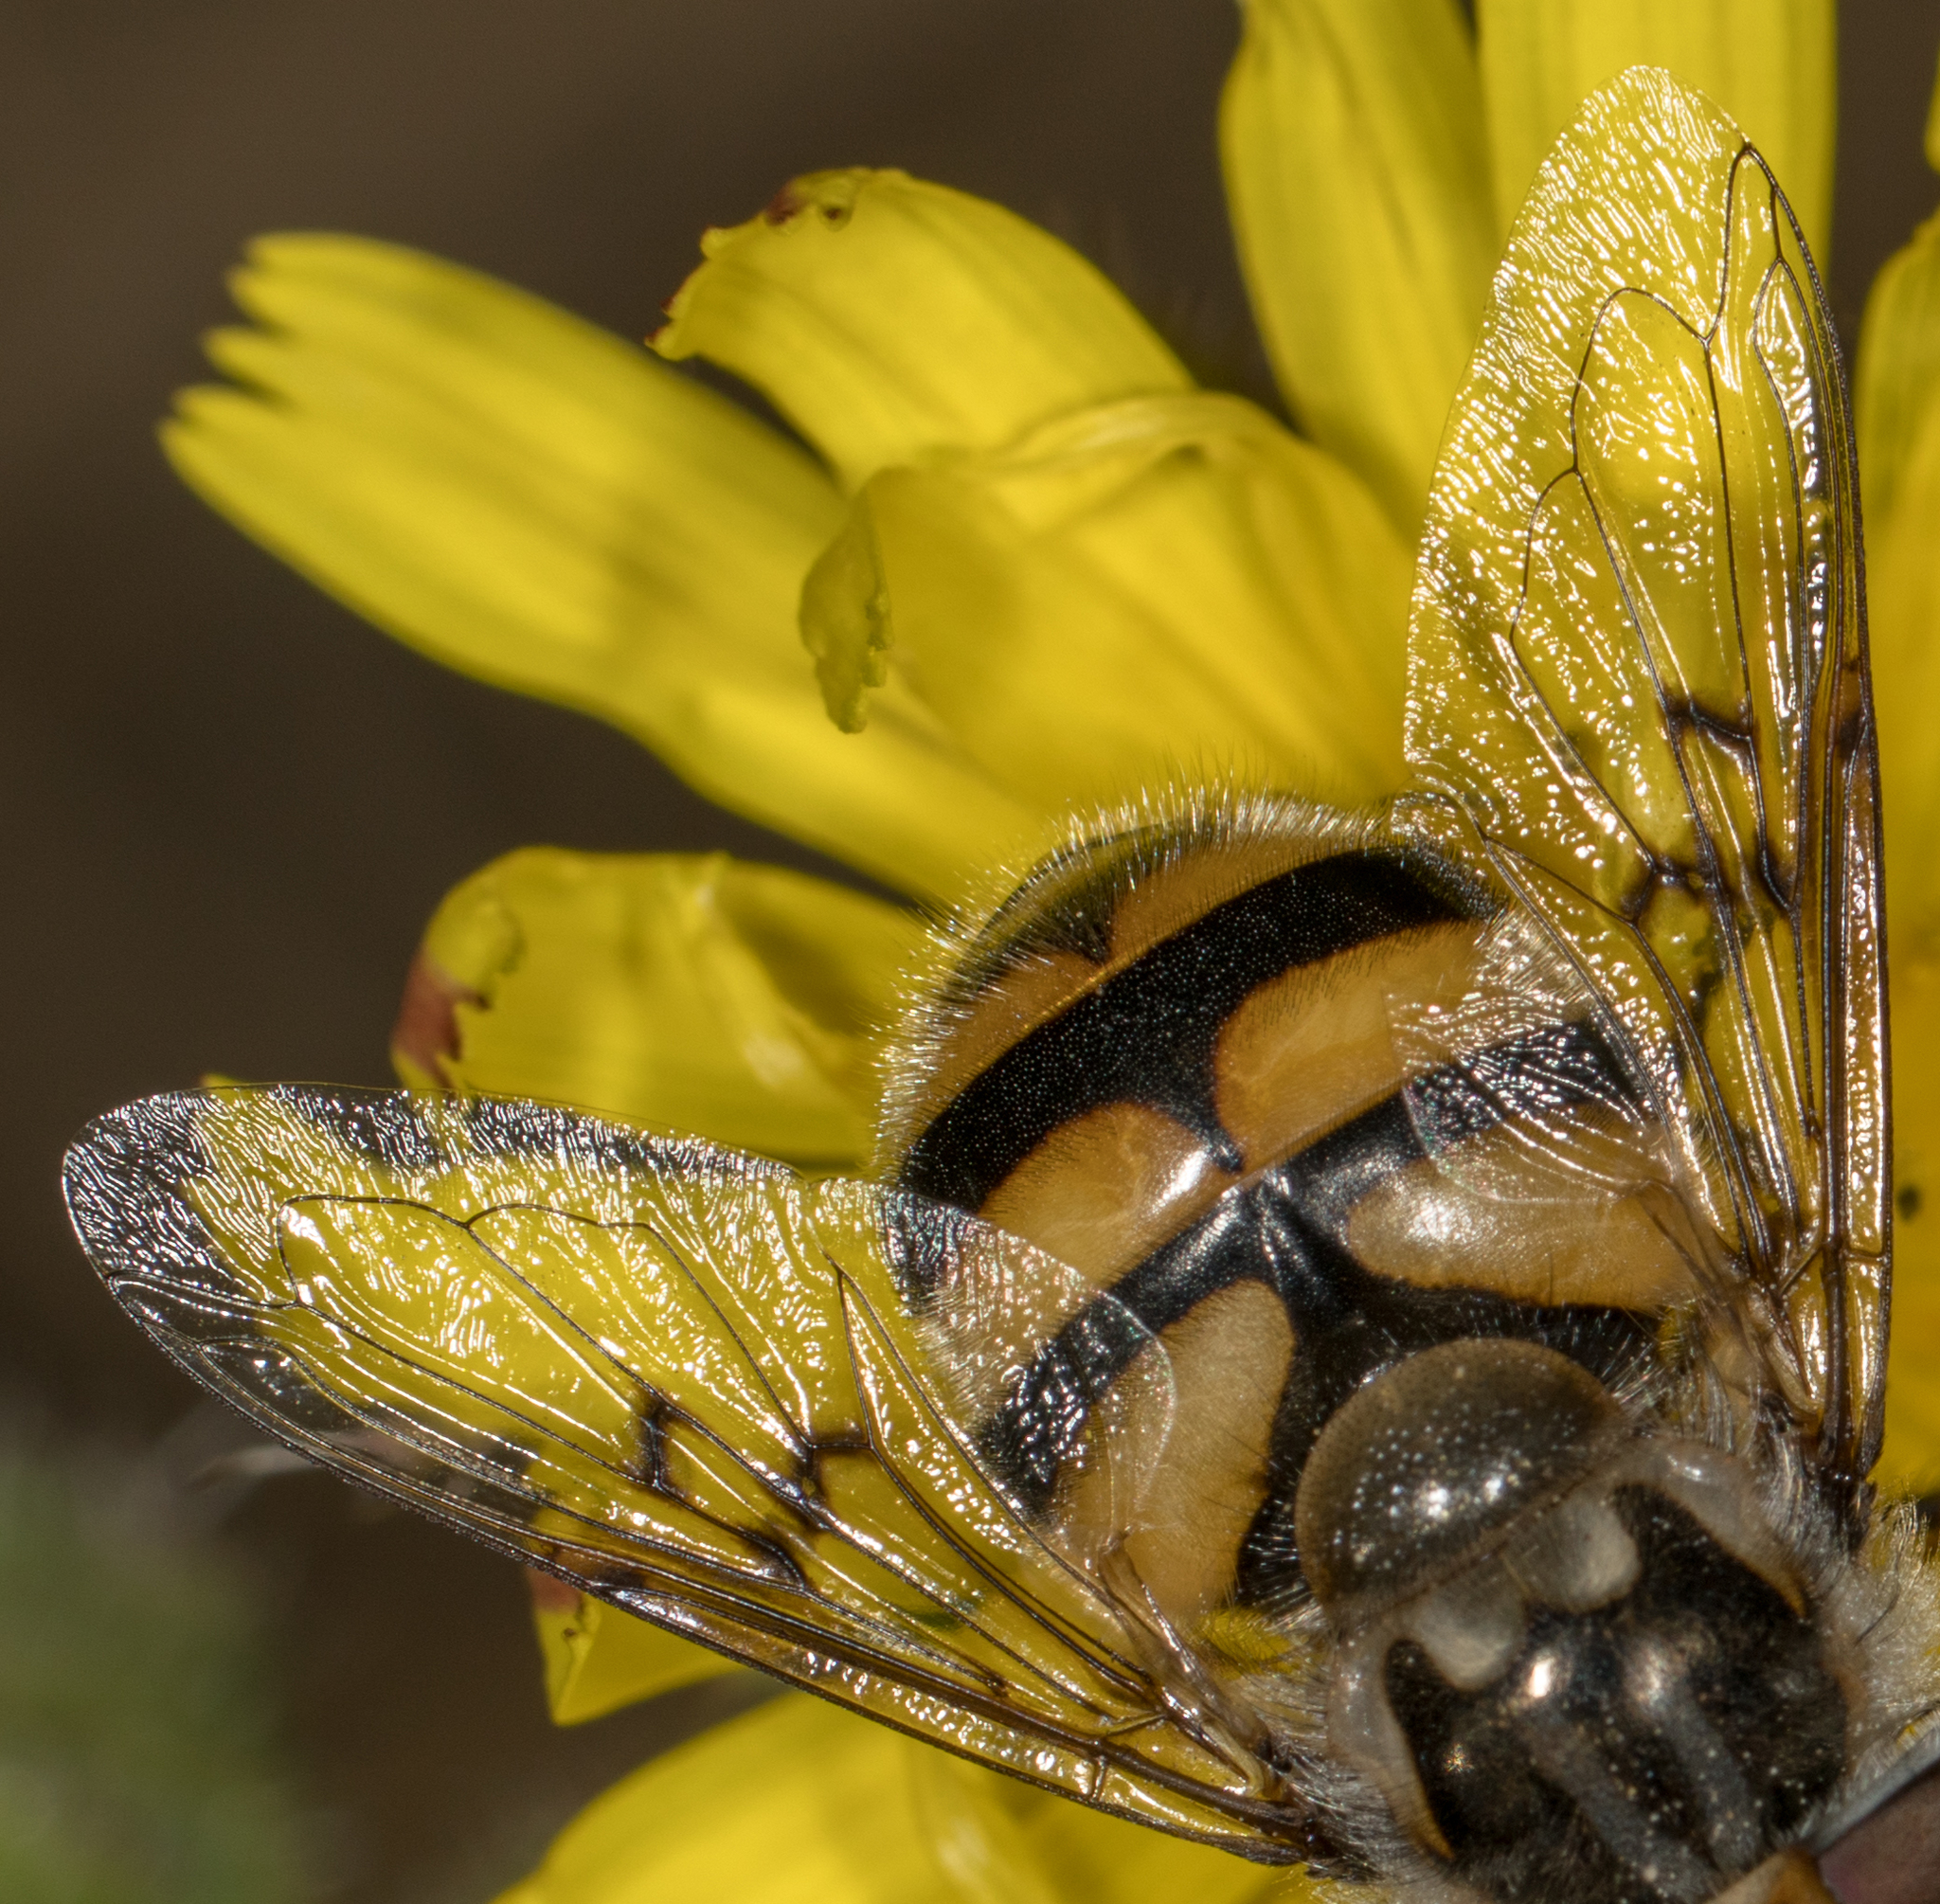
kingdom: Animalia
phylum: Arthropoda
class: Insecta
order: Diptera
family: Syrphidae
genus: Copestylum
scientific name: Copestylum avidum
